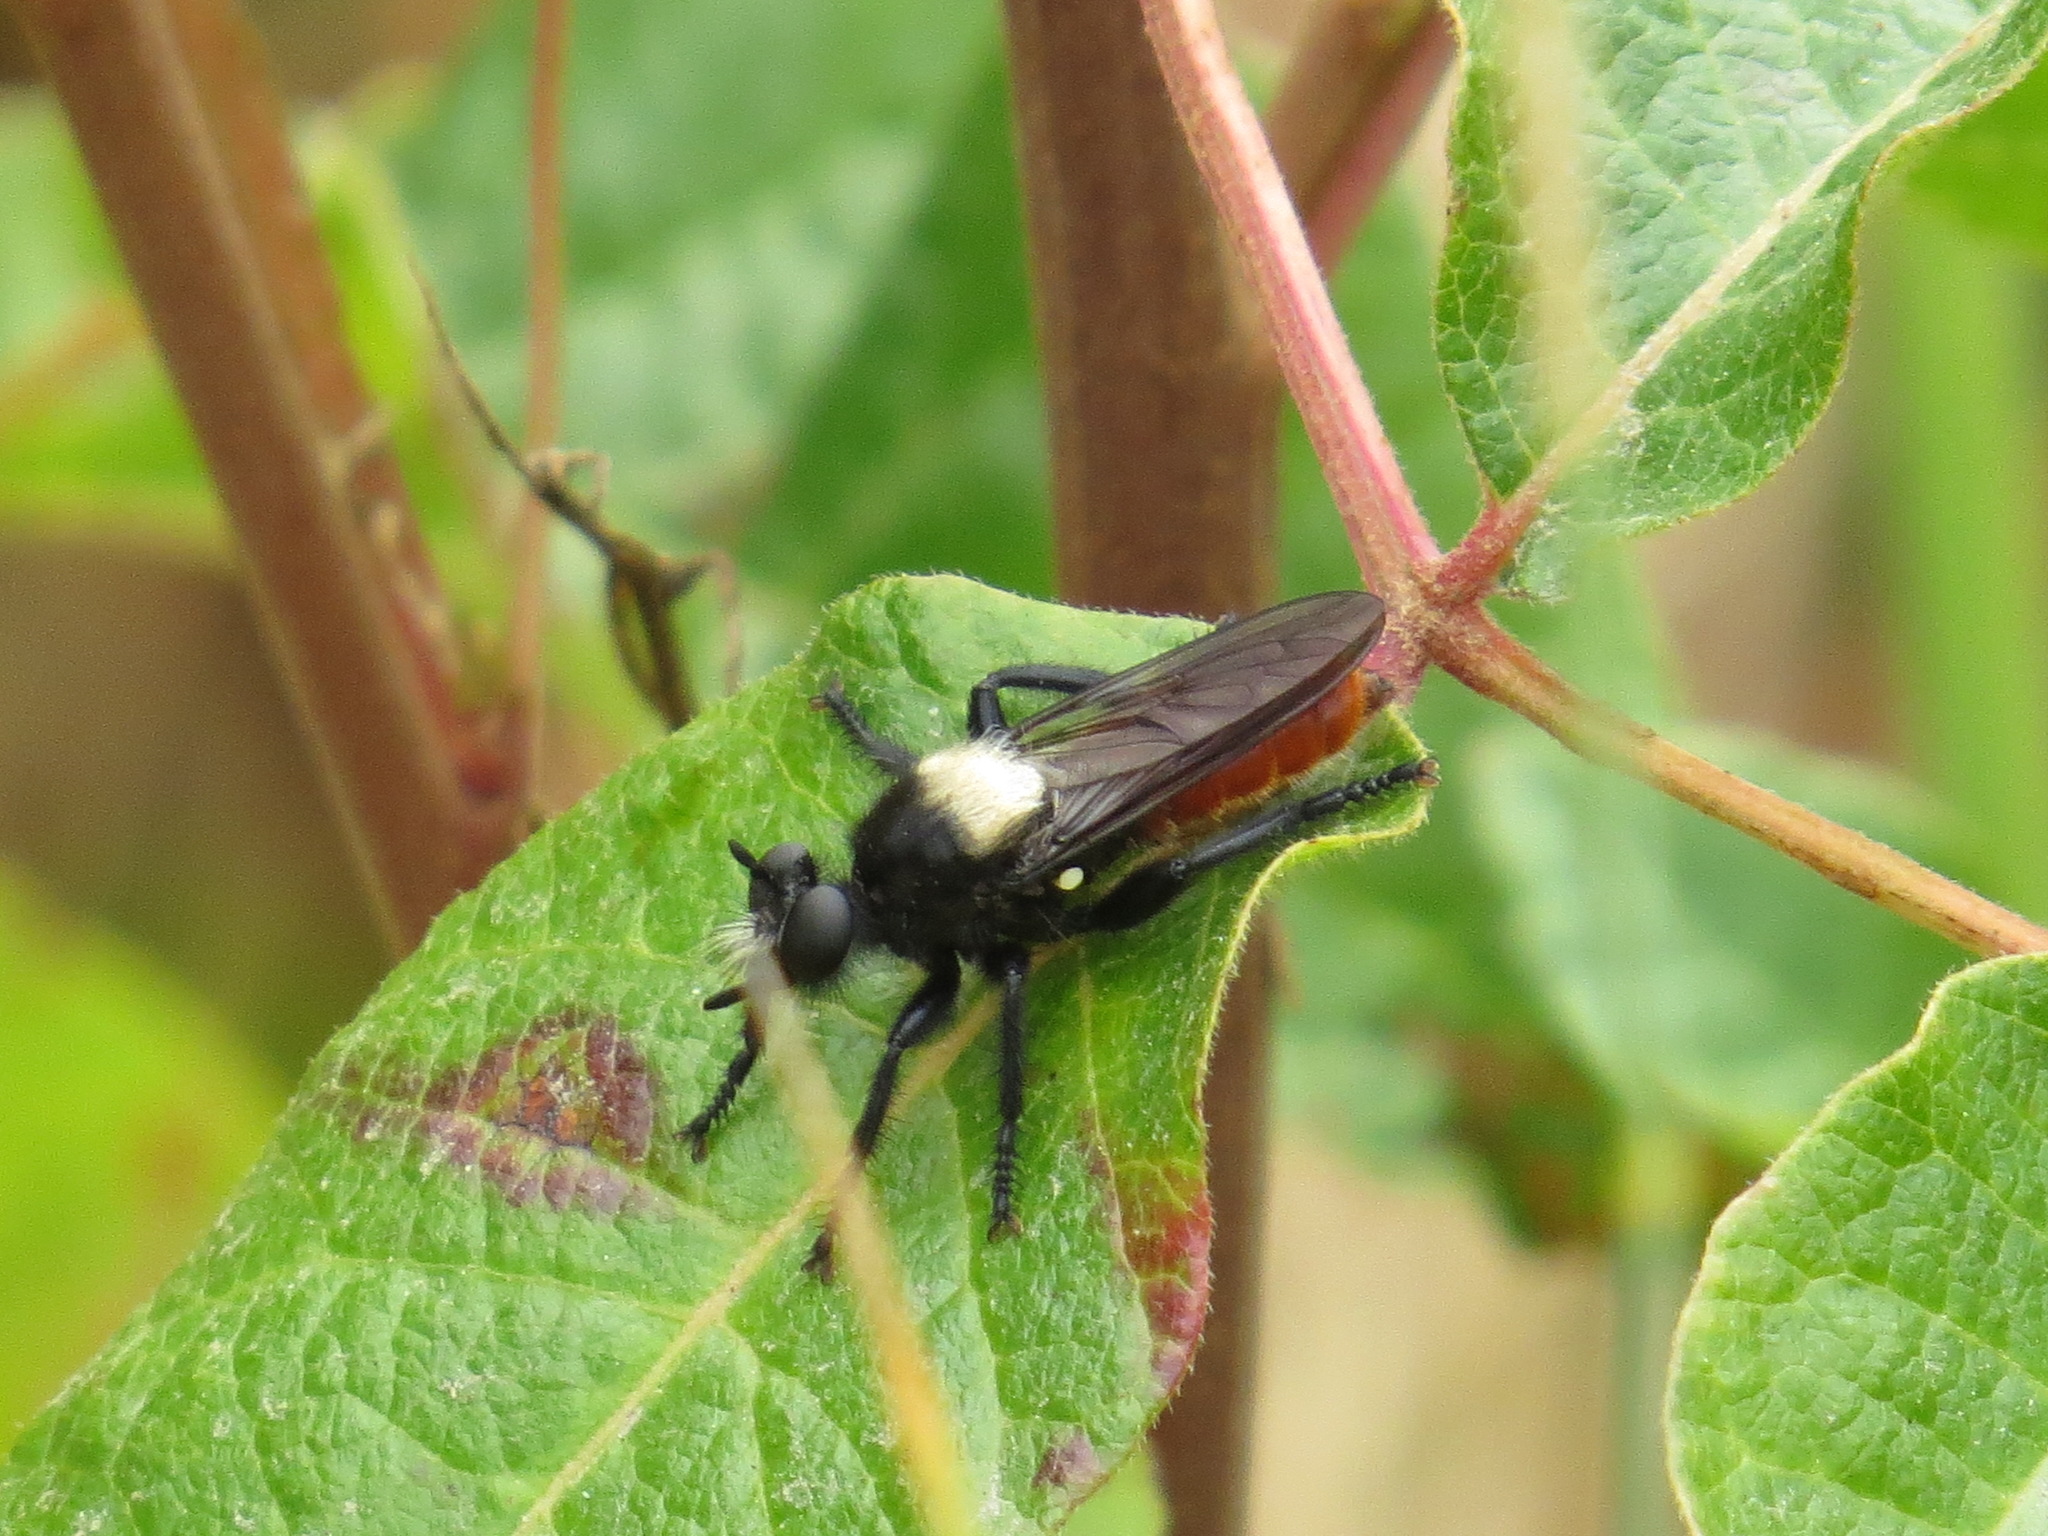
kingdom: Animalia
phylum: Arthropoda
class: Insecta
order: Diptera
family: Asilidae
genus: Laphria
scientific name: Laphria coquillettii
